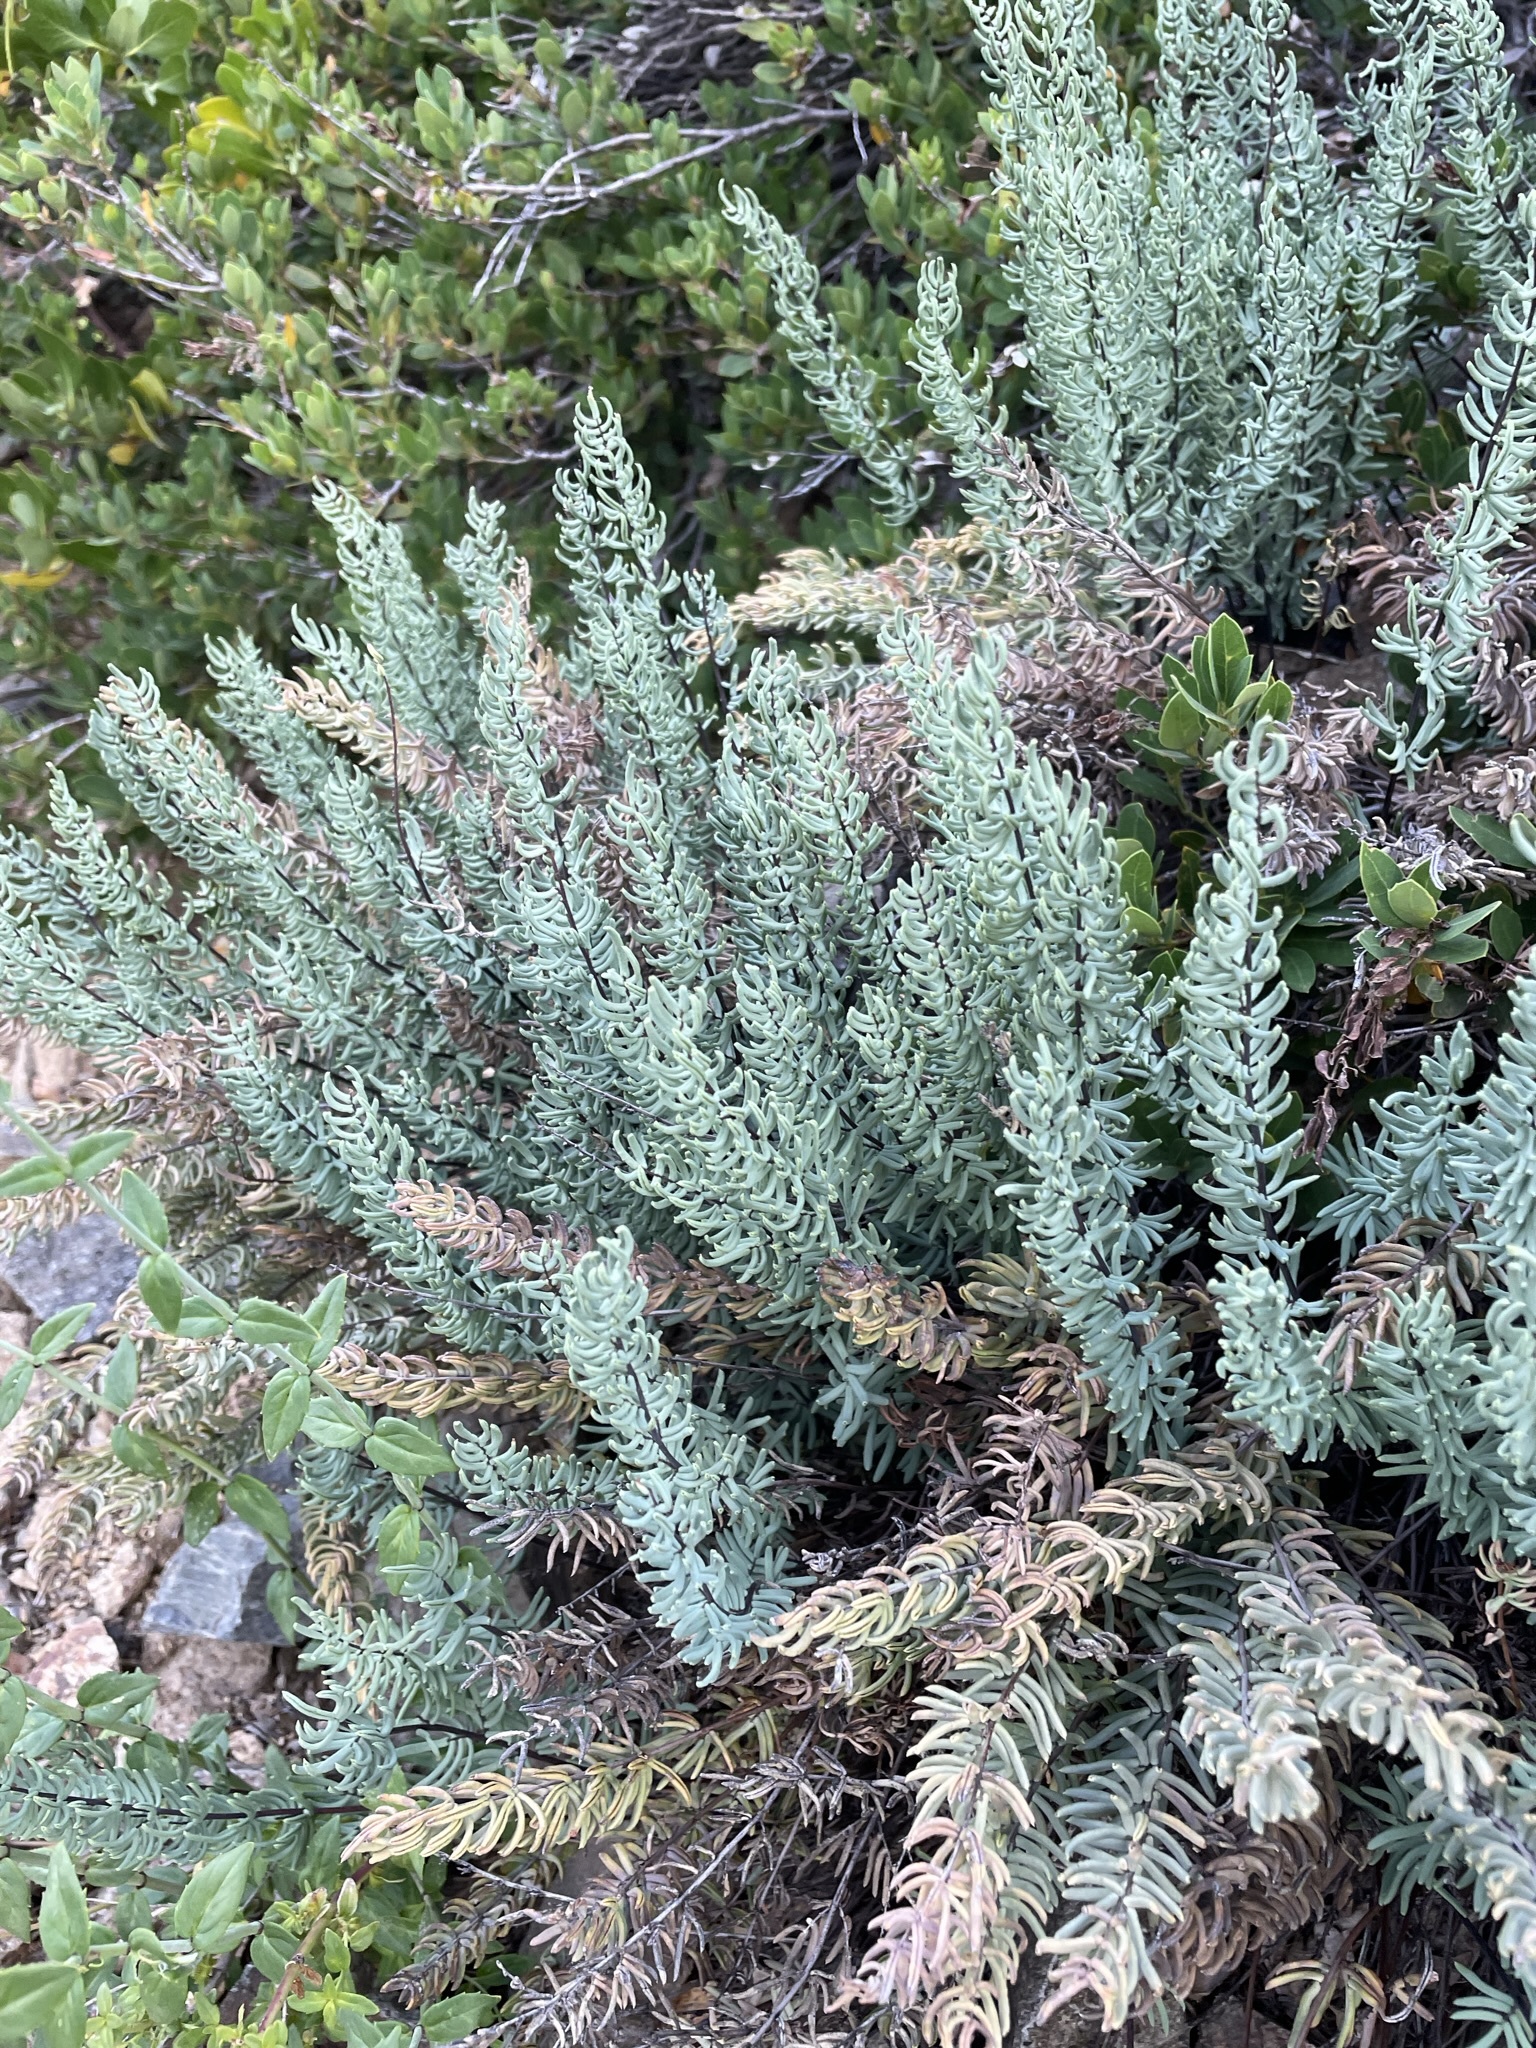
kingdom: Plantae
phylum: Tracheophyta
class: Polypodiopsida
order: Polypodiales
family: Pteridaceae
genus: Pellaea
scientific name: Pellaea brachyptera
